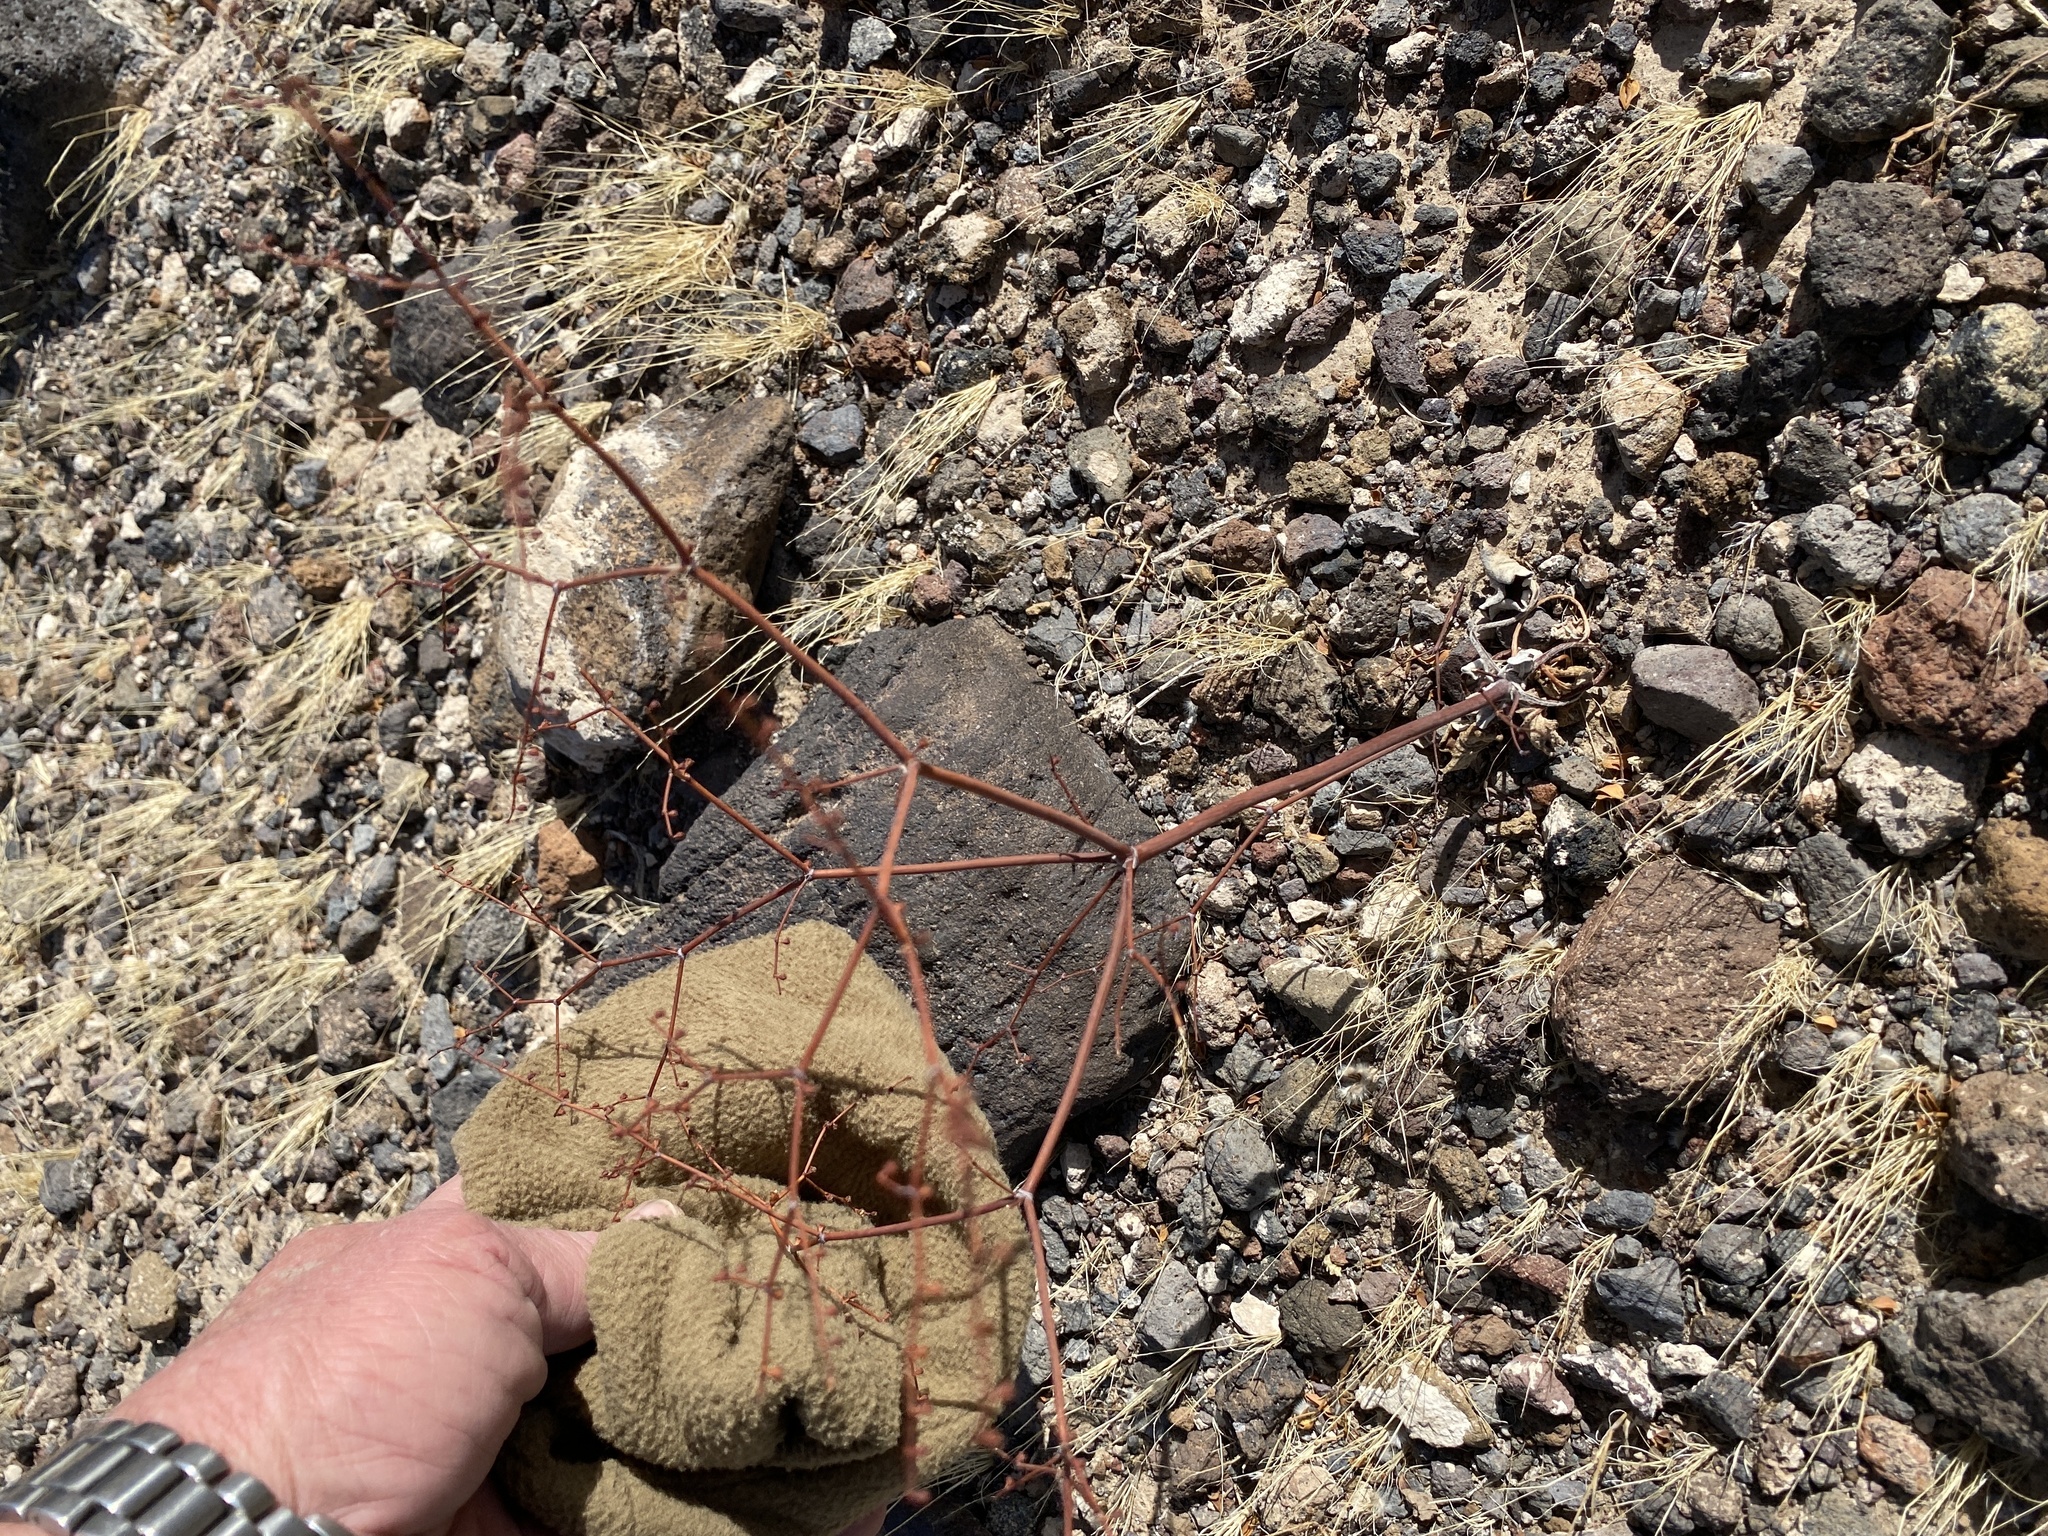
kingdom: Plantae
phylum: Tracheophyta
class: Magnoliopsida
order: Caryophyllales
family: Polygonaceae
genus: Eriogonum
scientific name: Eriogonum deflexum
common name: Skeleton-weed
